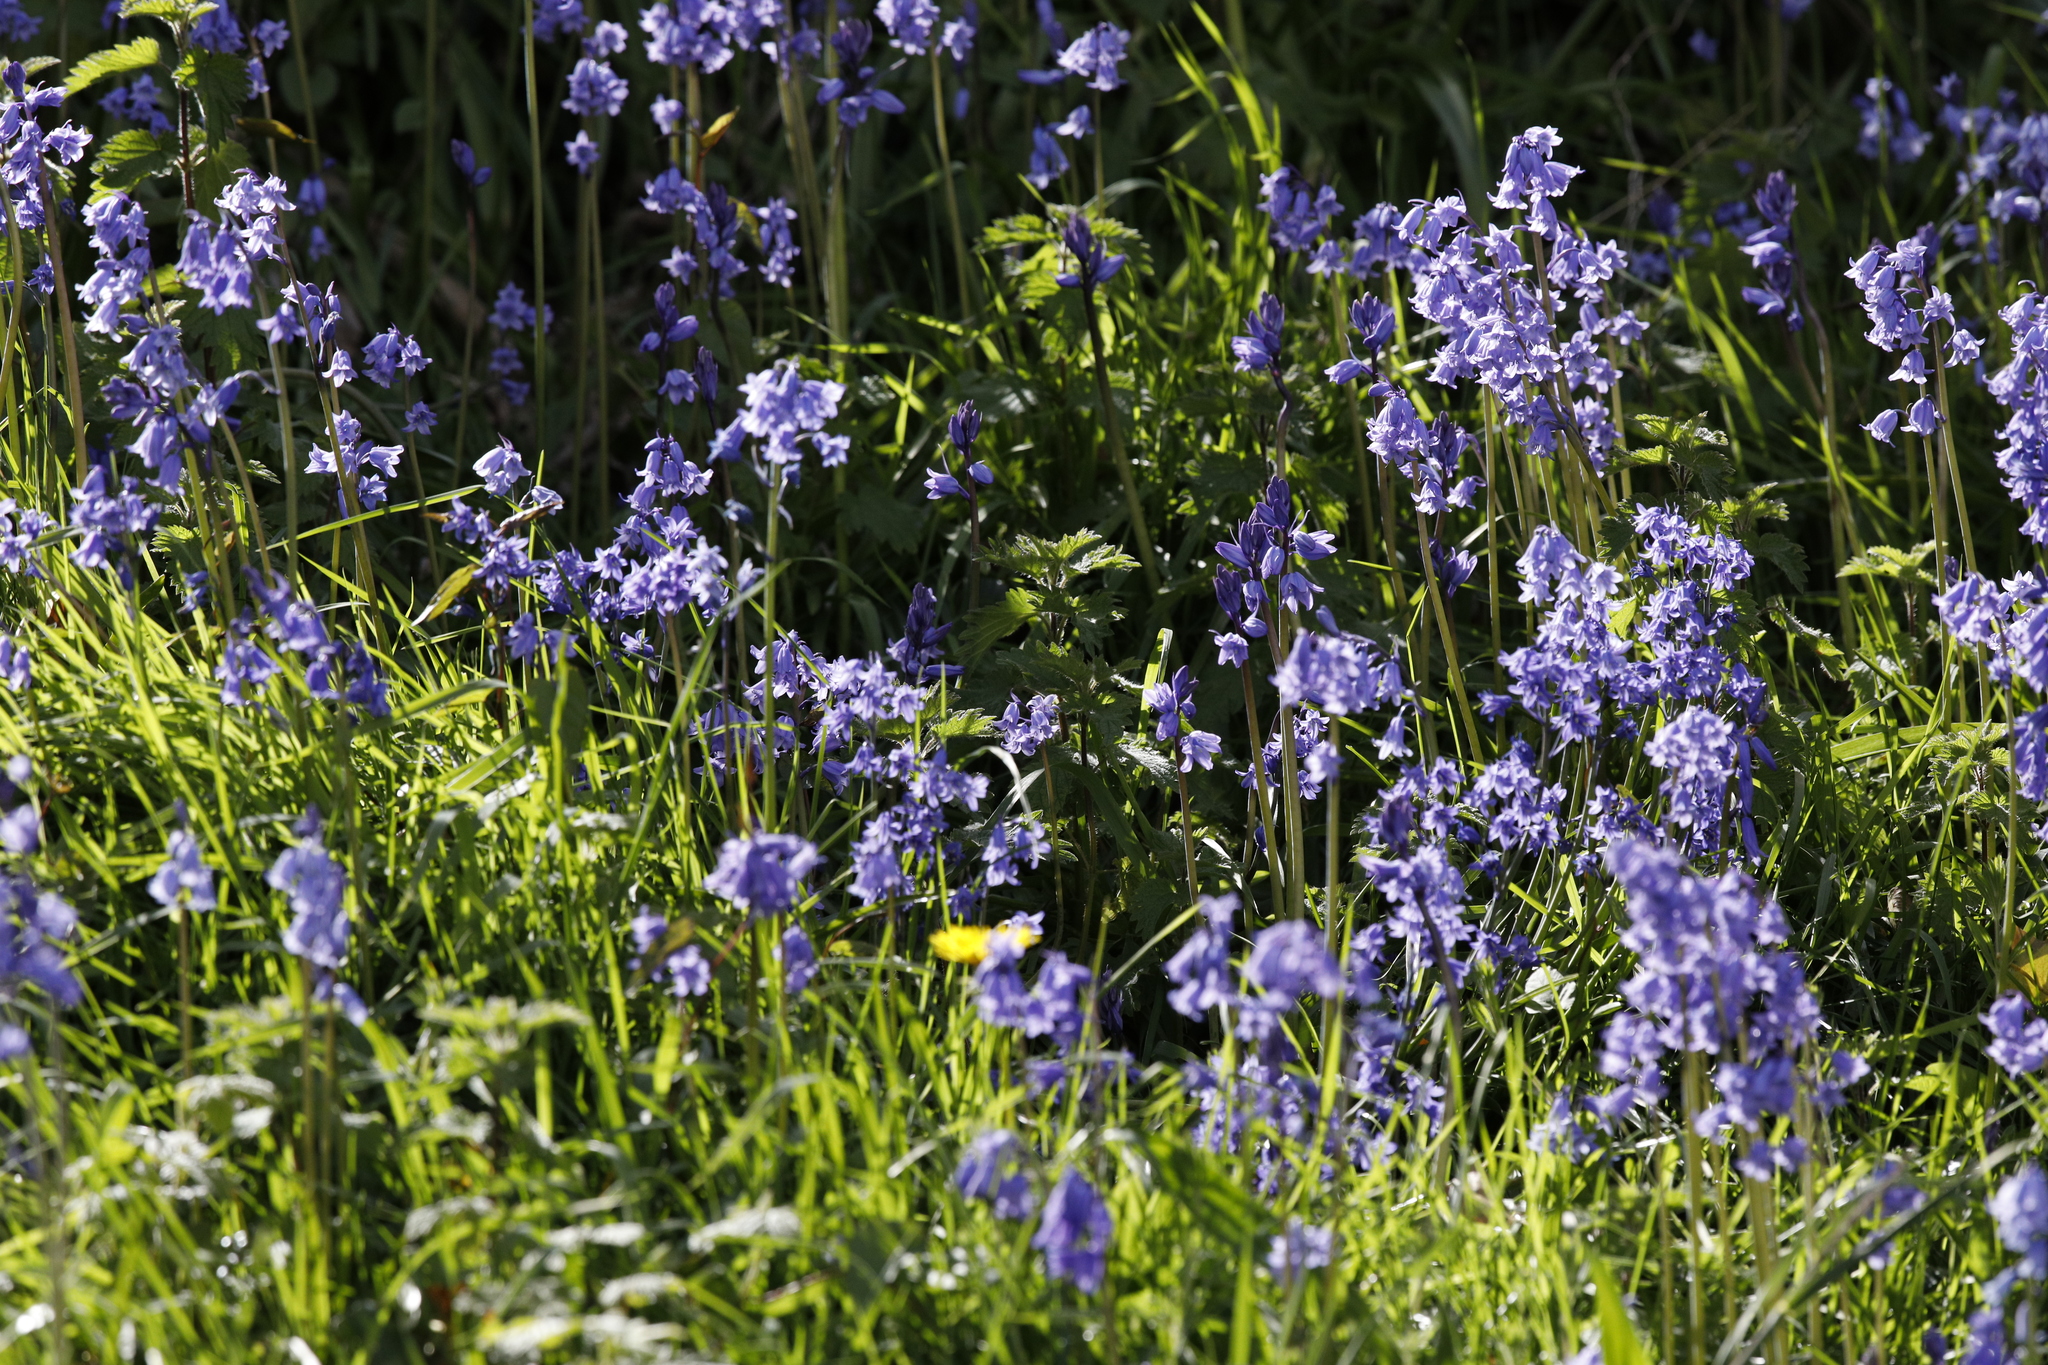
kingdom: Plantae
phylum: Tracheophyta
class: Liliopsida
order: Asparagales
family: Asparagaceae
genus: Hyacinthoides
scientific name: Hyacinthoides non-scripta
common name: Bluebell
